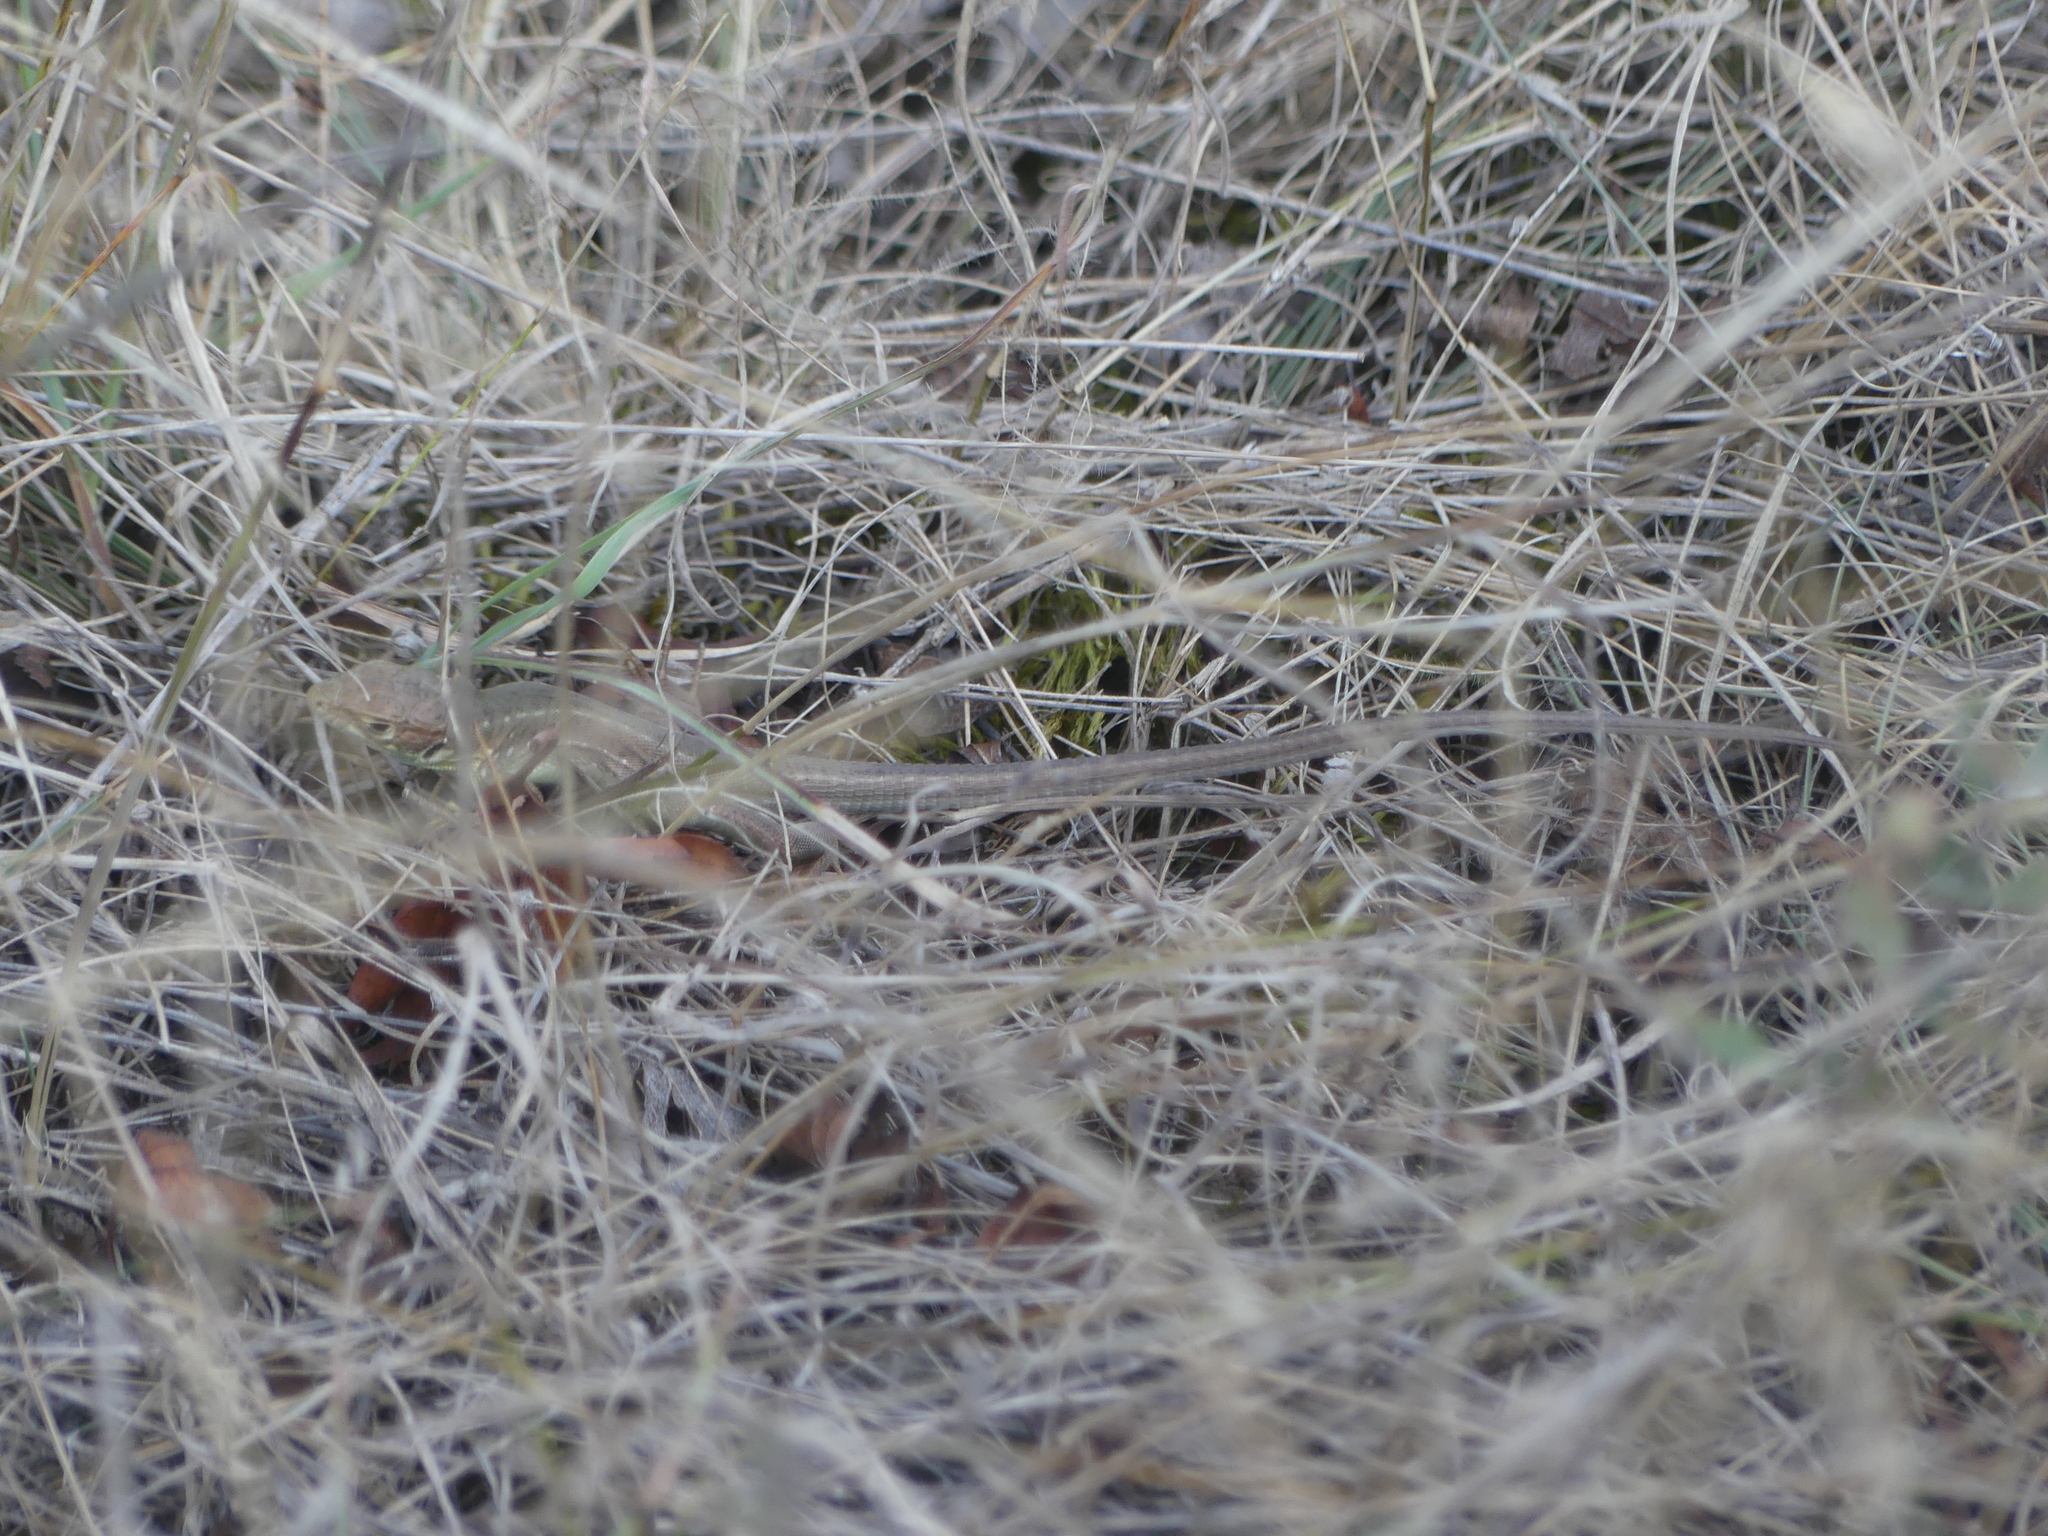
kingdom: Animalia
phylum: Chordata
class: Squamata
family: Lacertidae
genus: Lacerta
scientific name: Lacerta viridis
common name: European green lizard
